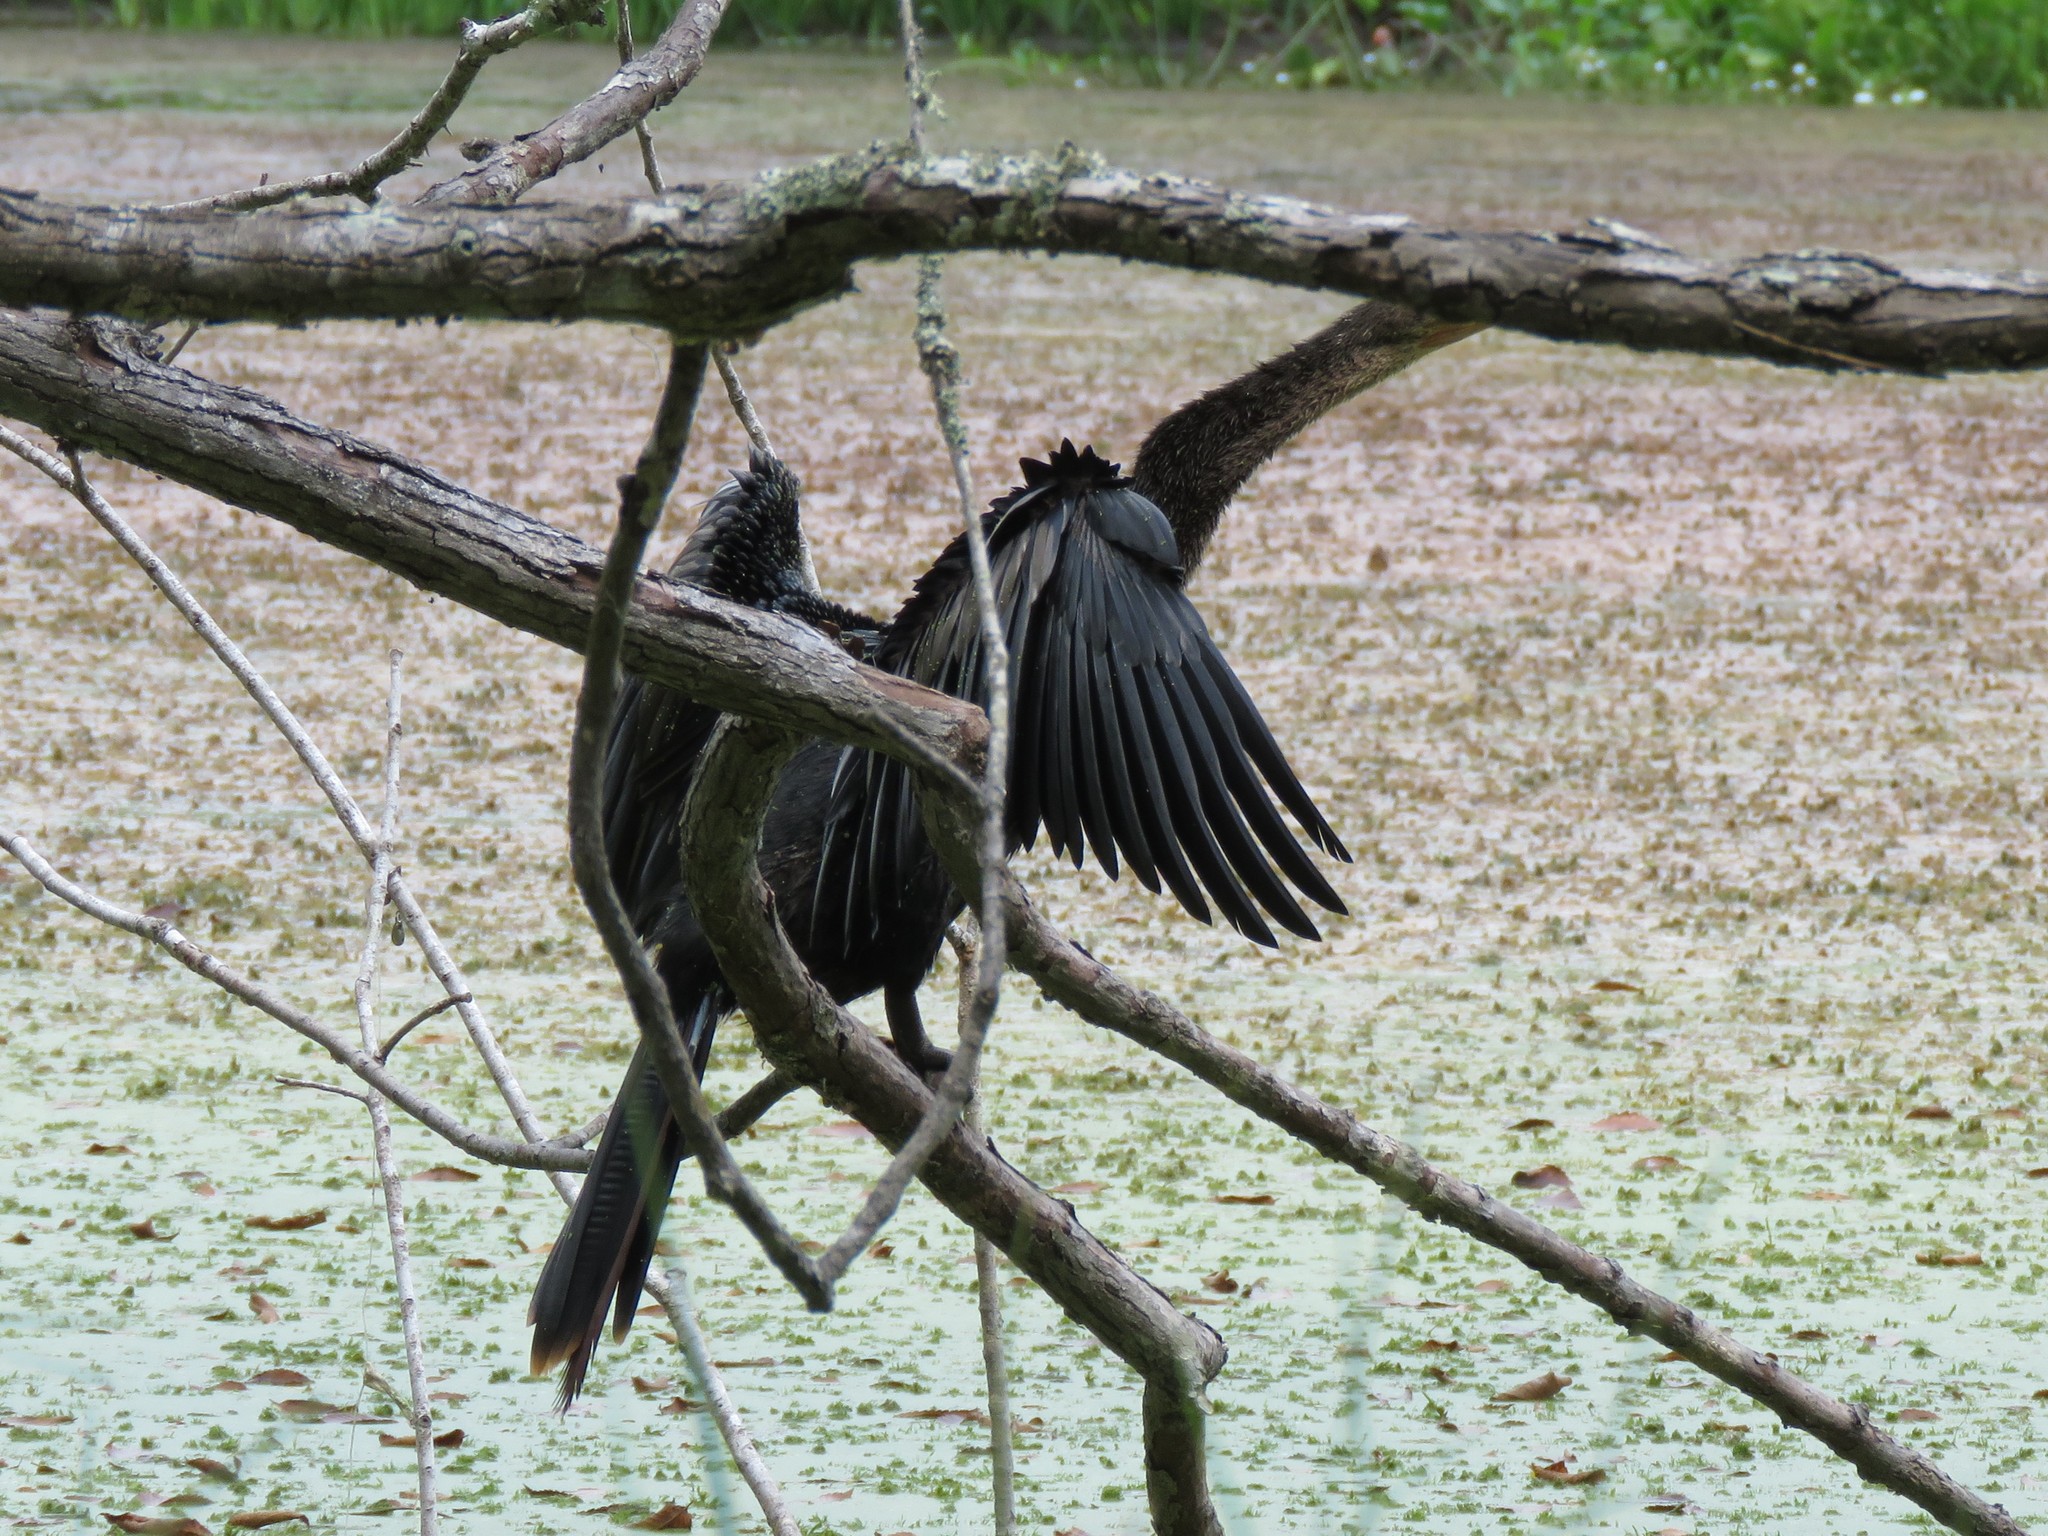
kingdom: Animalia
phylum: Chordata
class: Aves
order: Suliformes
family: Anhingidae
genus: Anhinga
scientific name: Anhinga anhinga
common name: Anhinga
